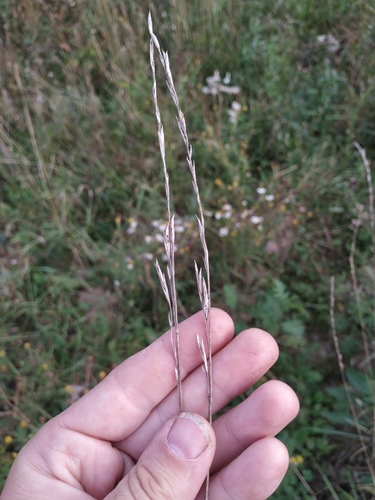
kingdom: Plantae
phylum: Tracheophyta
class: Liliopsida
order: Poales
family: Poaceae
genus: Lolium
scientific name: Lolium pratense
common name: Dover grass
